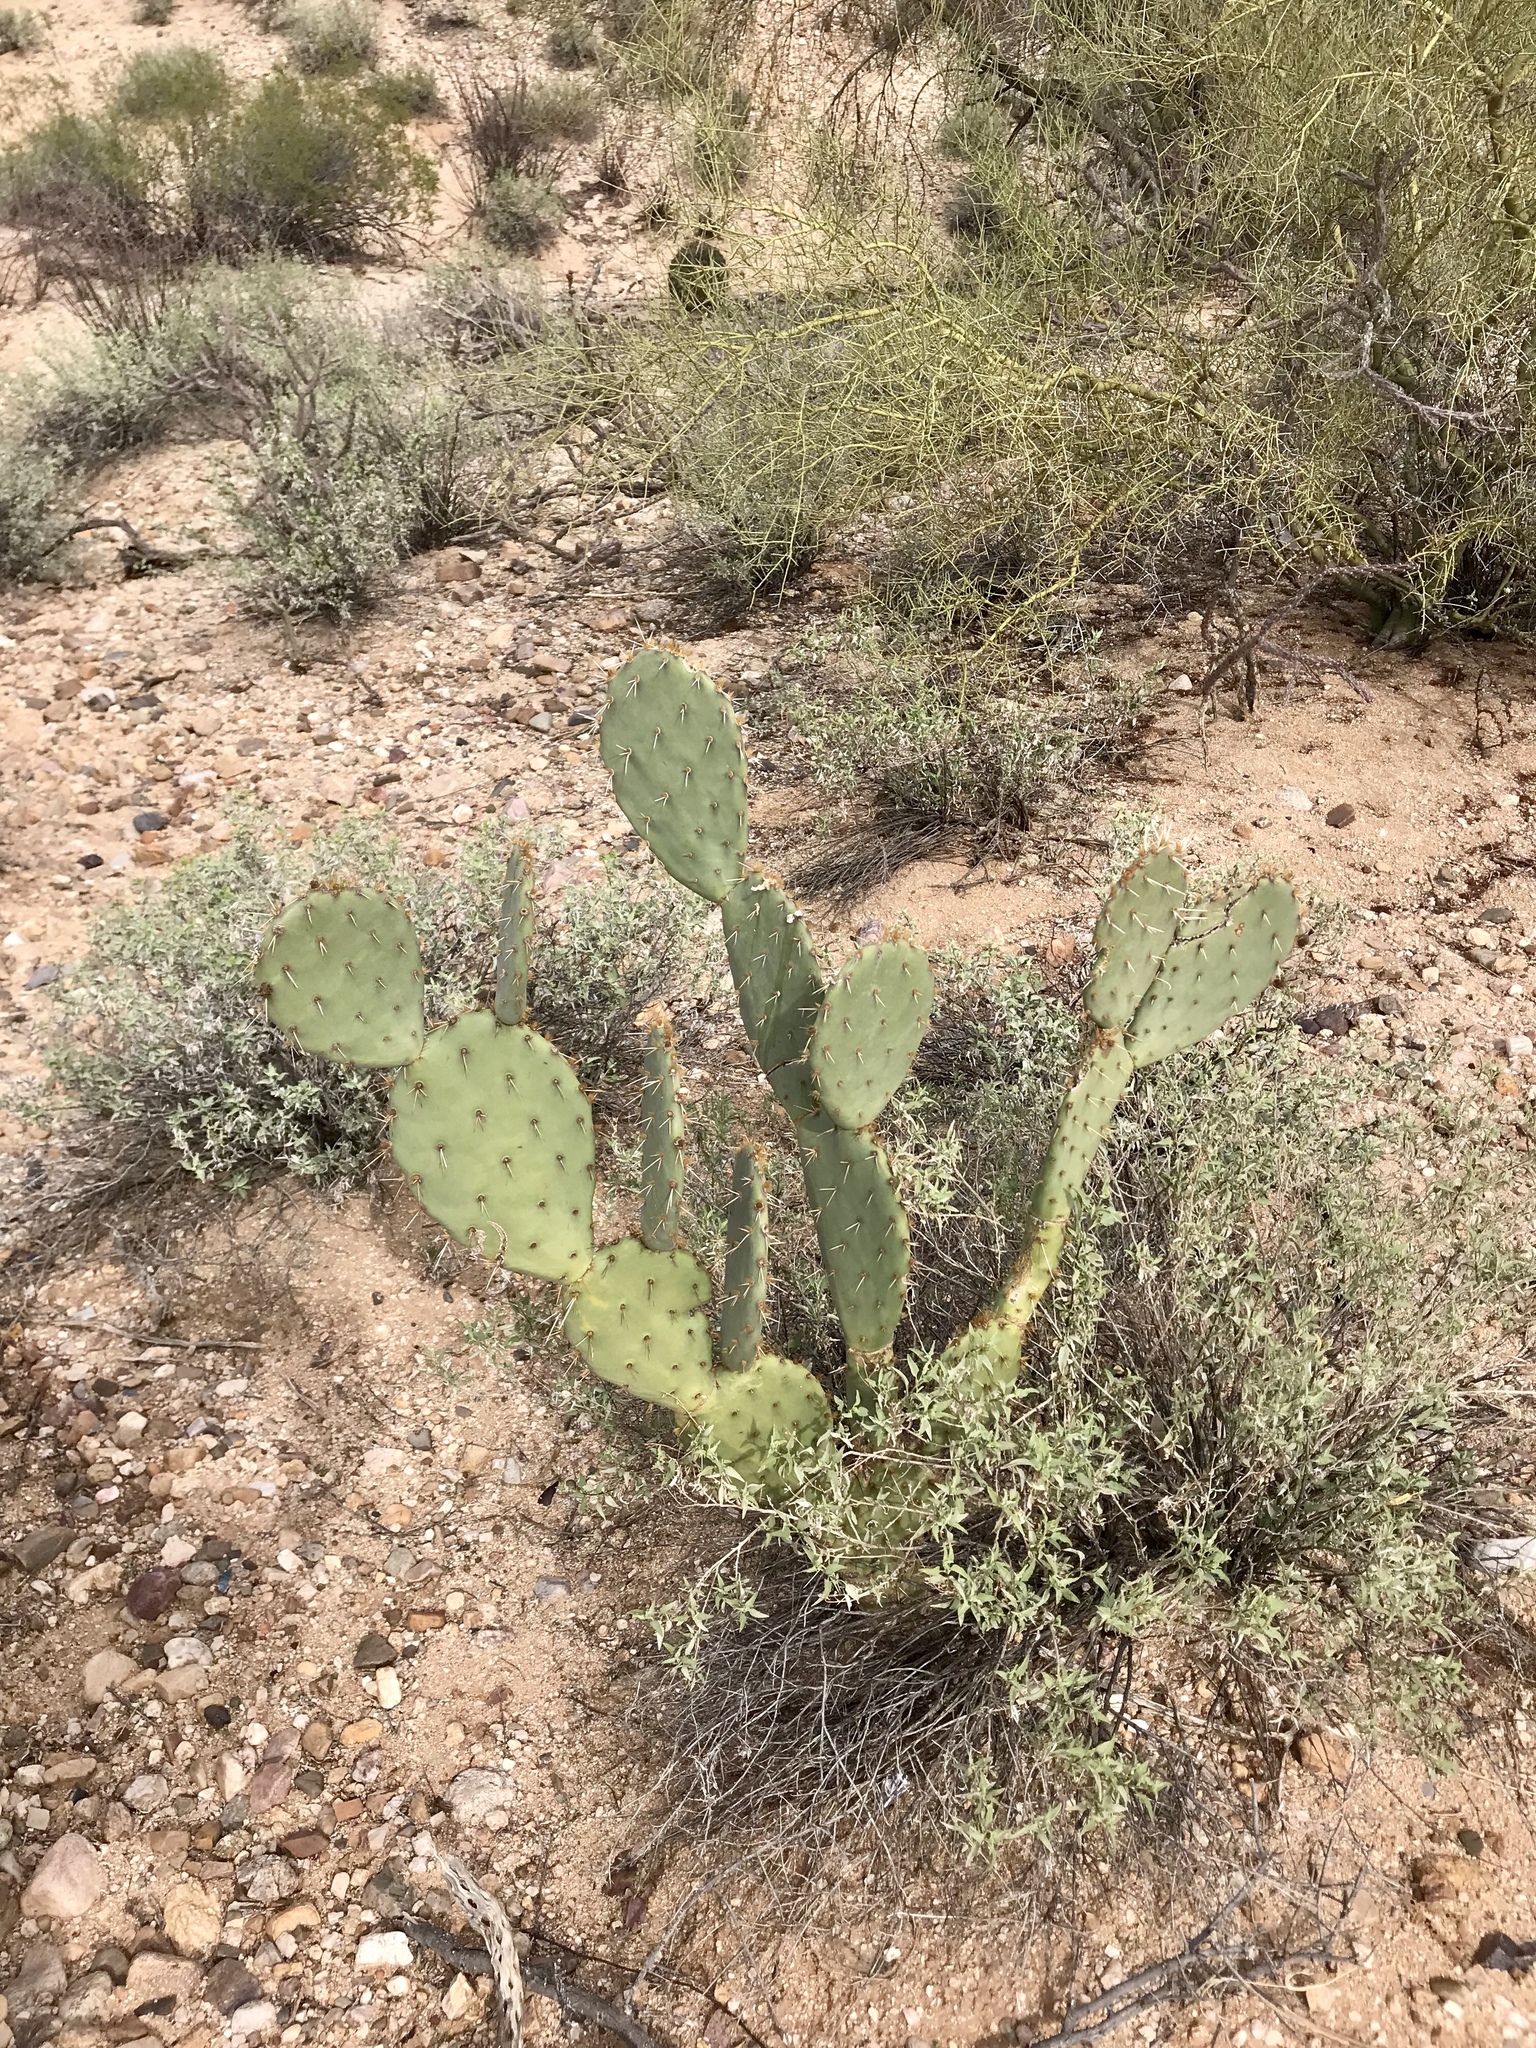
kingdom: Plantae
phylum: Tracheophyta
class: Magnoliopsida
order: Caryophyllales
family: Cactaceae
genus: Opuntia
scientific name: Opuntia engelmannii
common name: Cactus-apple
